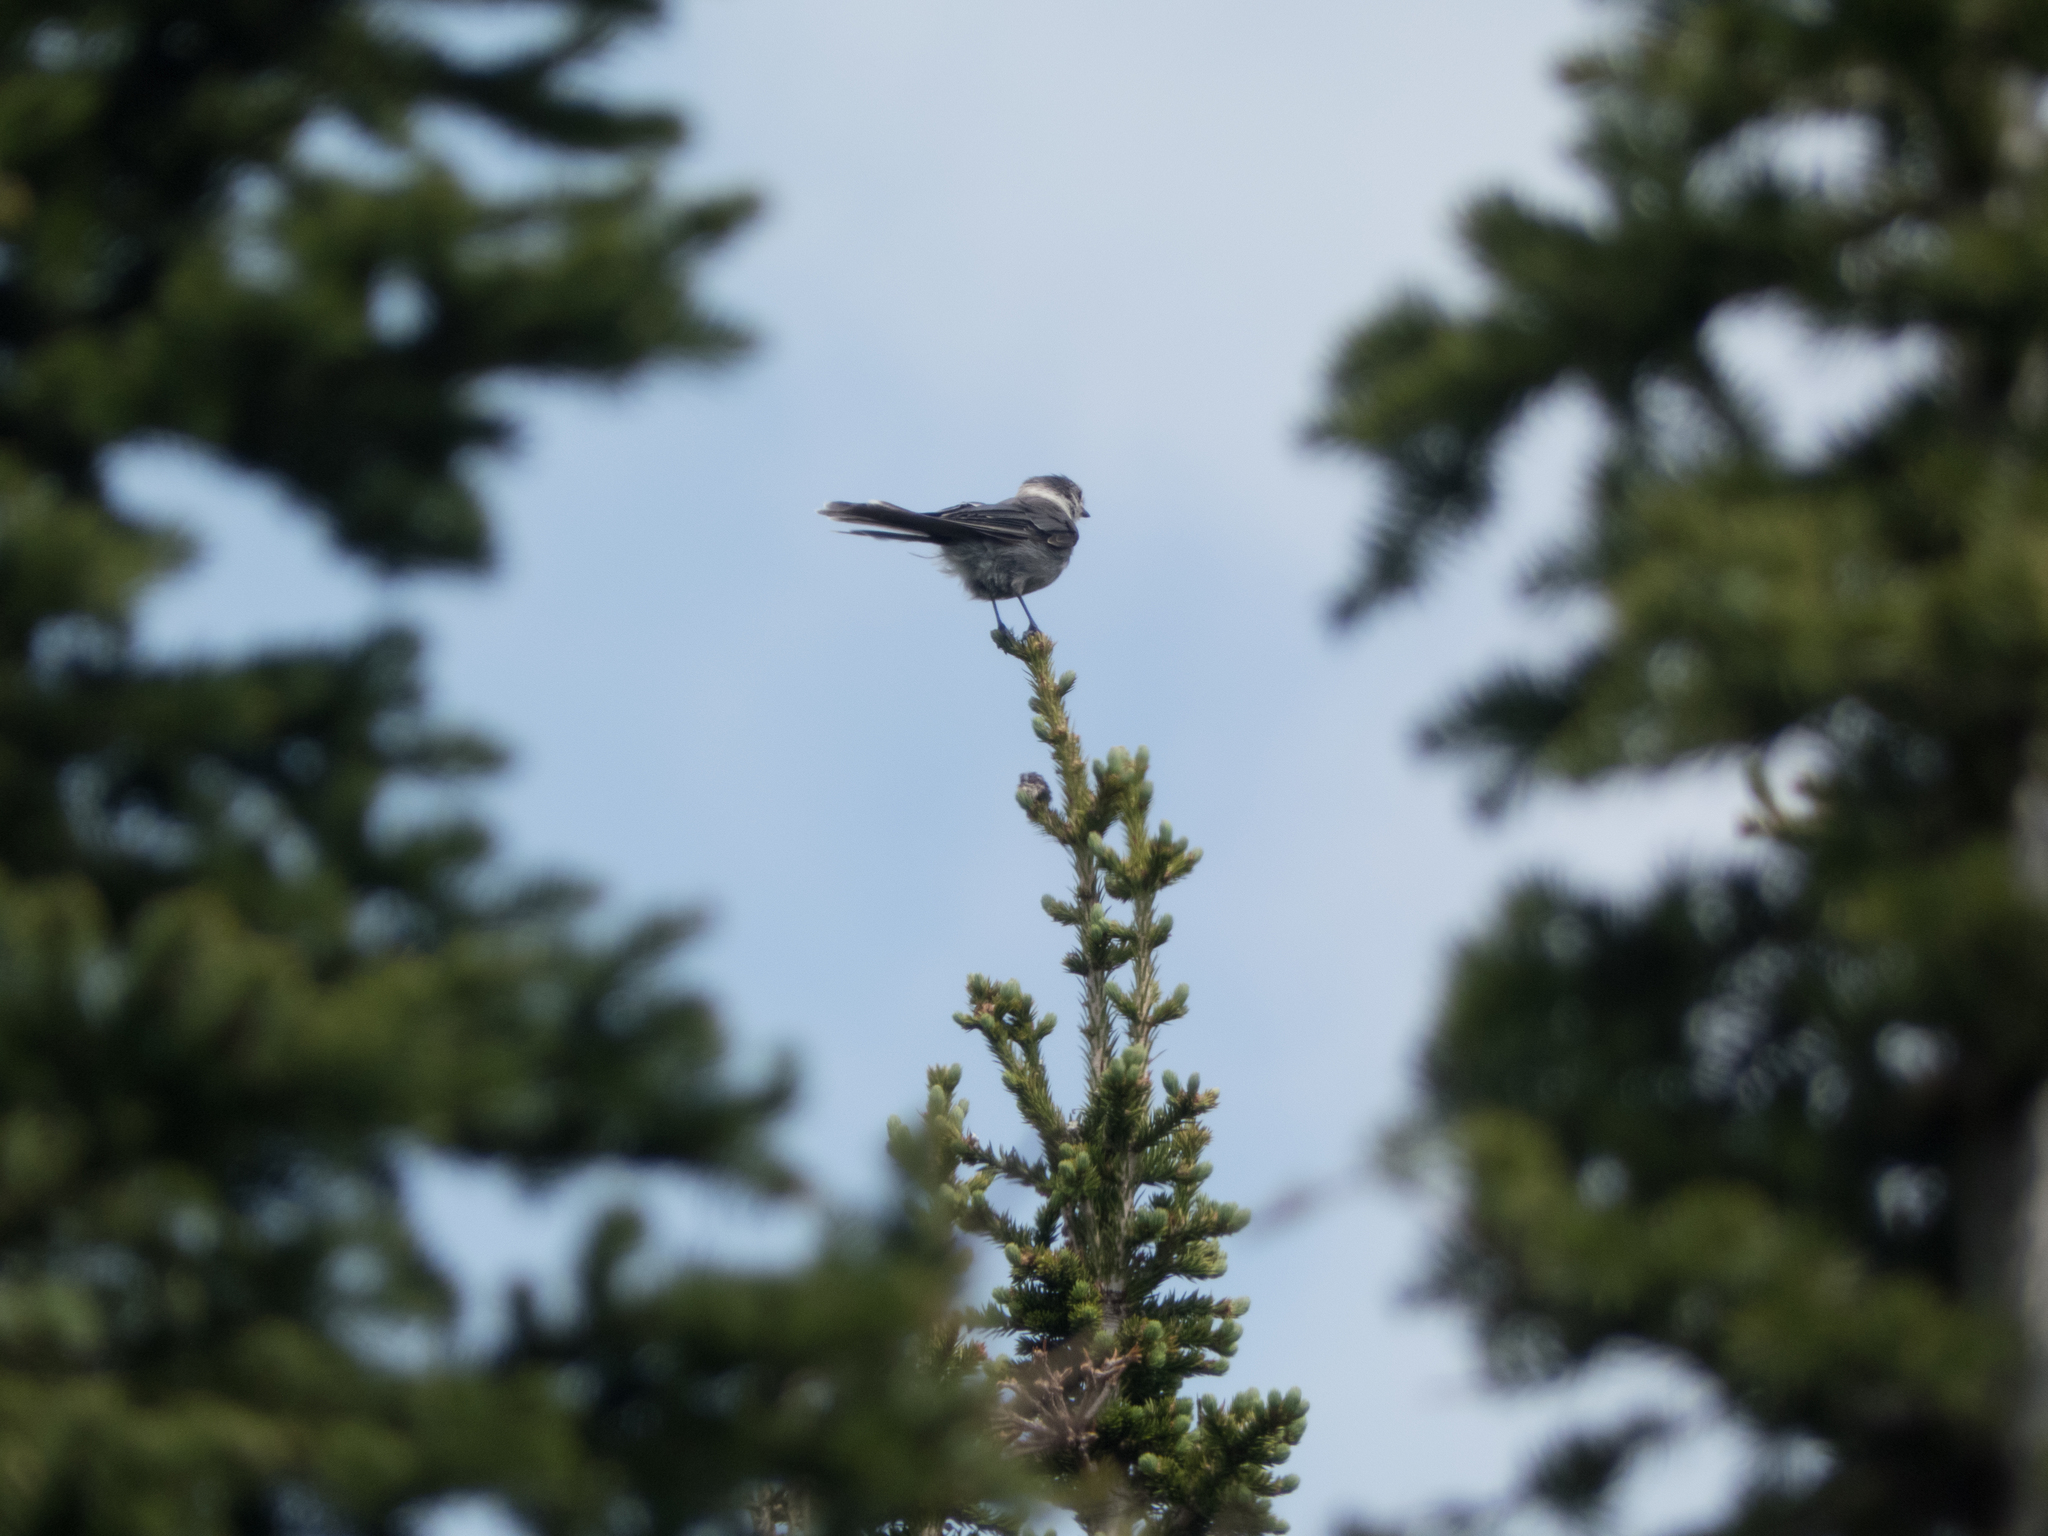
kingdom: Animalia
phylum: Chordata
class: Aves
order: Passeriformes
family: Corvidae
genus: Perisoreus
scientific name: Perisoreus canadensis
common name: Gray jay
